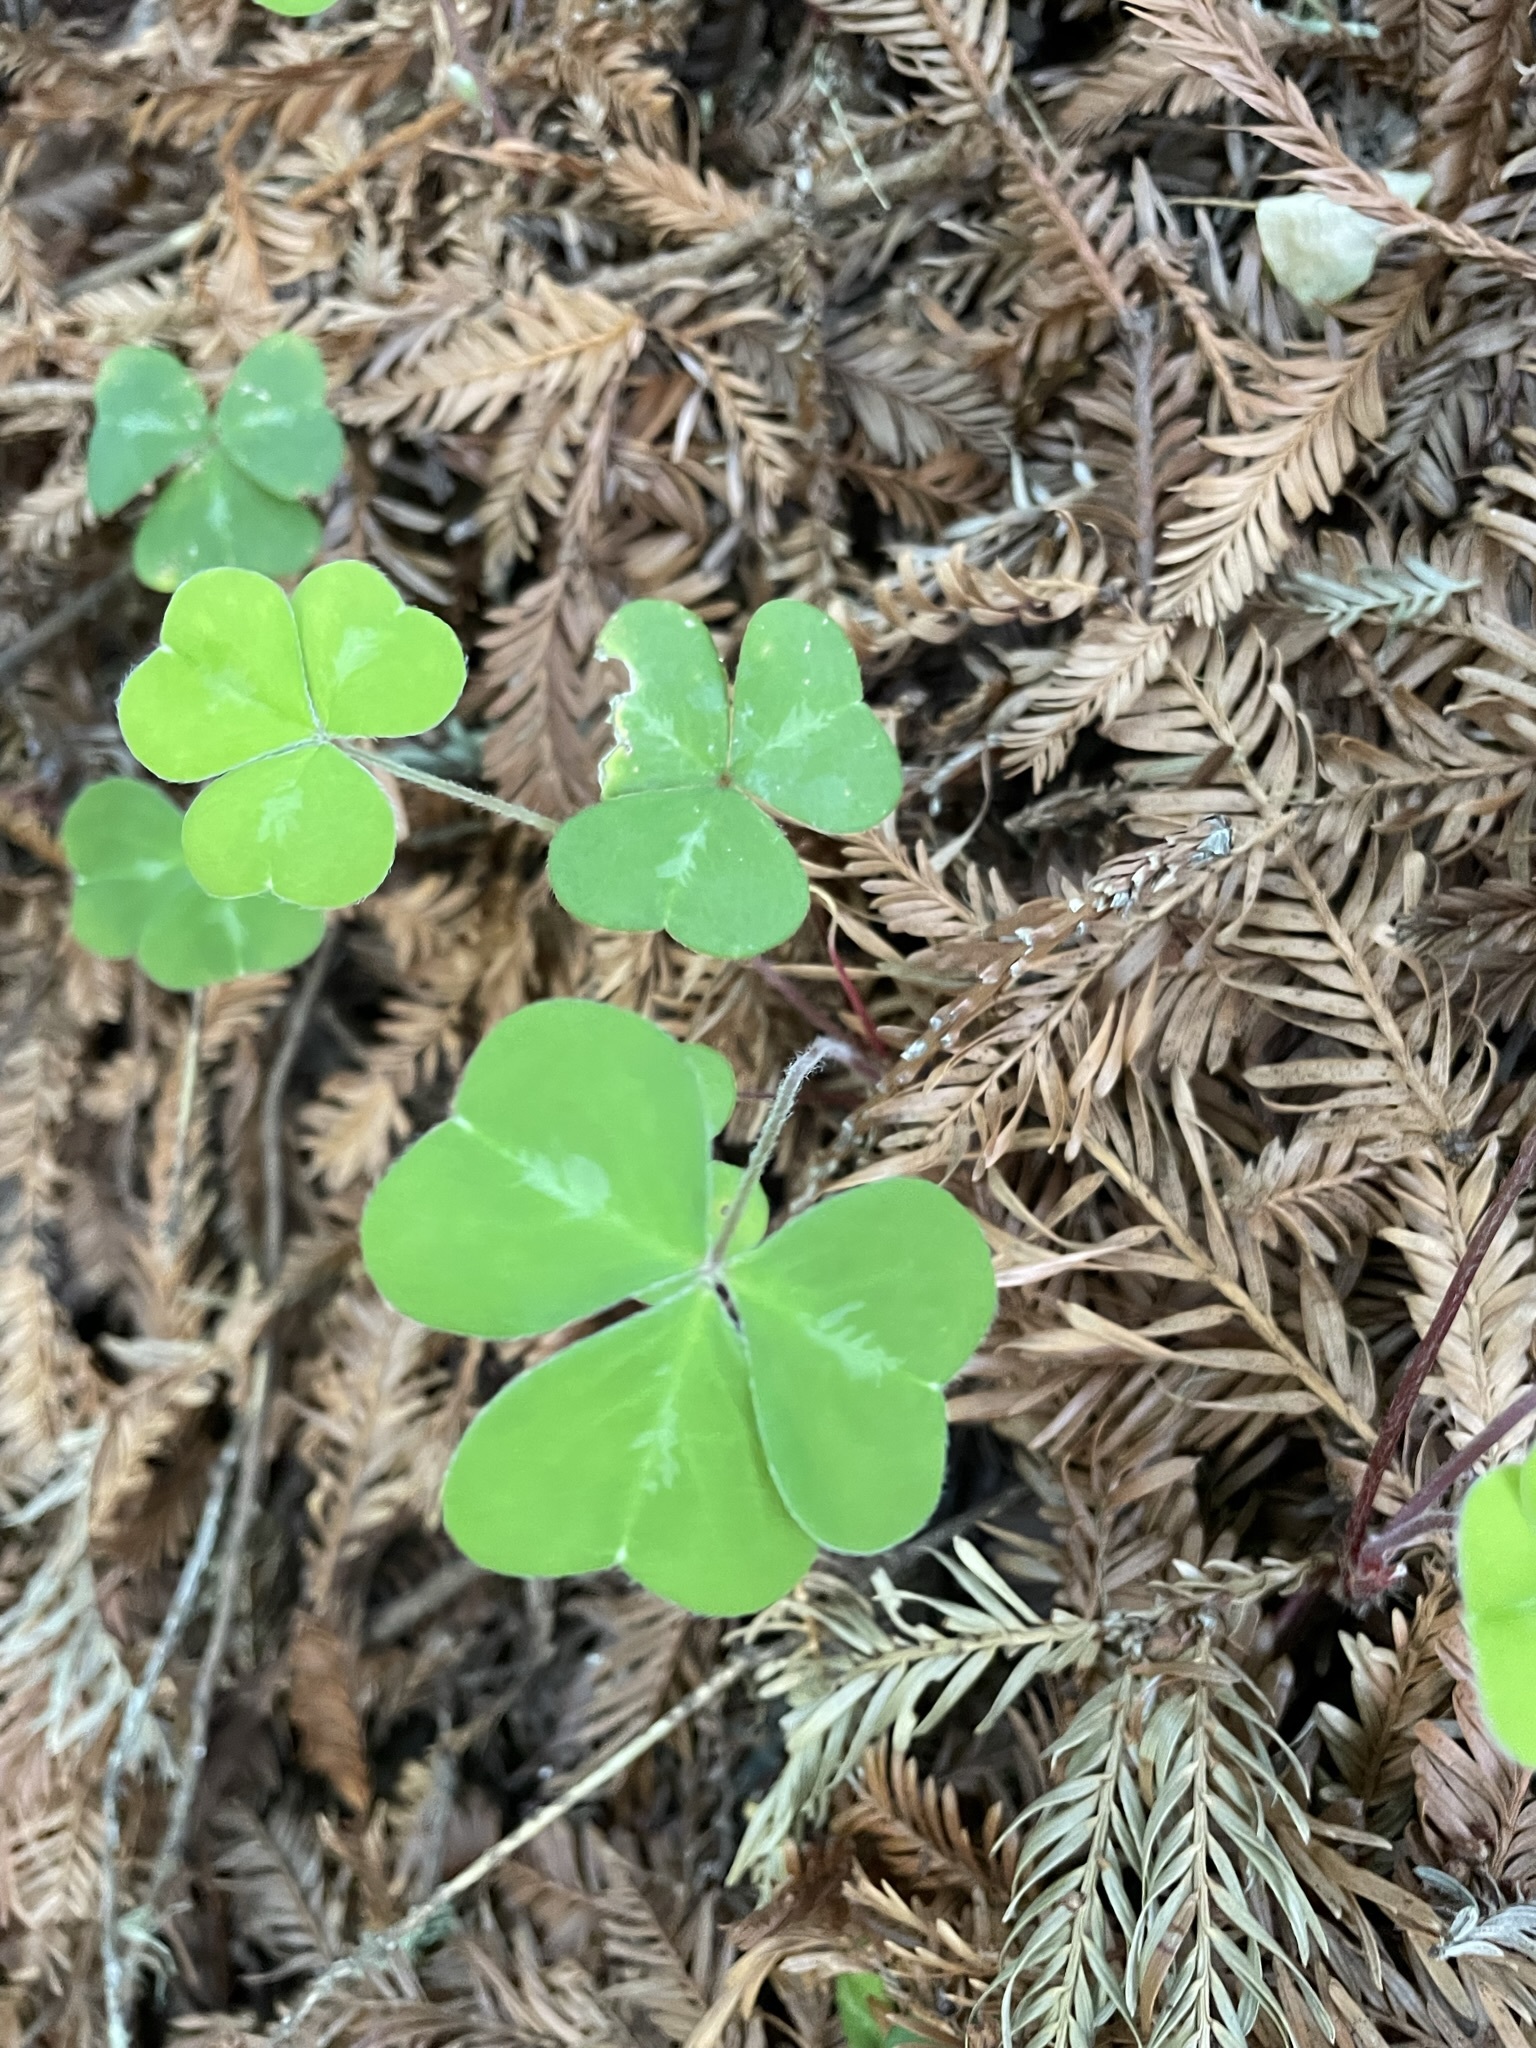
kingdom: Plantae
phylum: Tracheophyta
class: Magnoliopsida
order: Oxalidales
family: Oxalidaceae
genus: Oxalis
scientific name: Oxalis oregana
